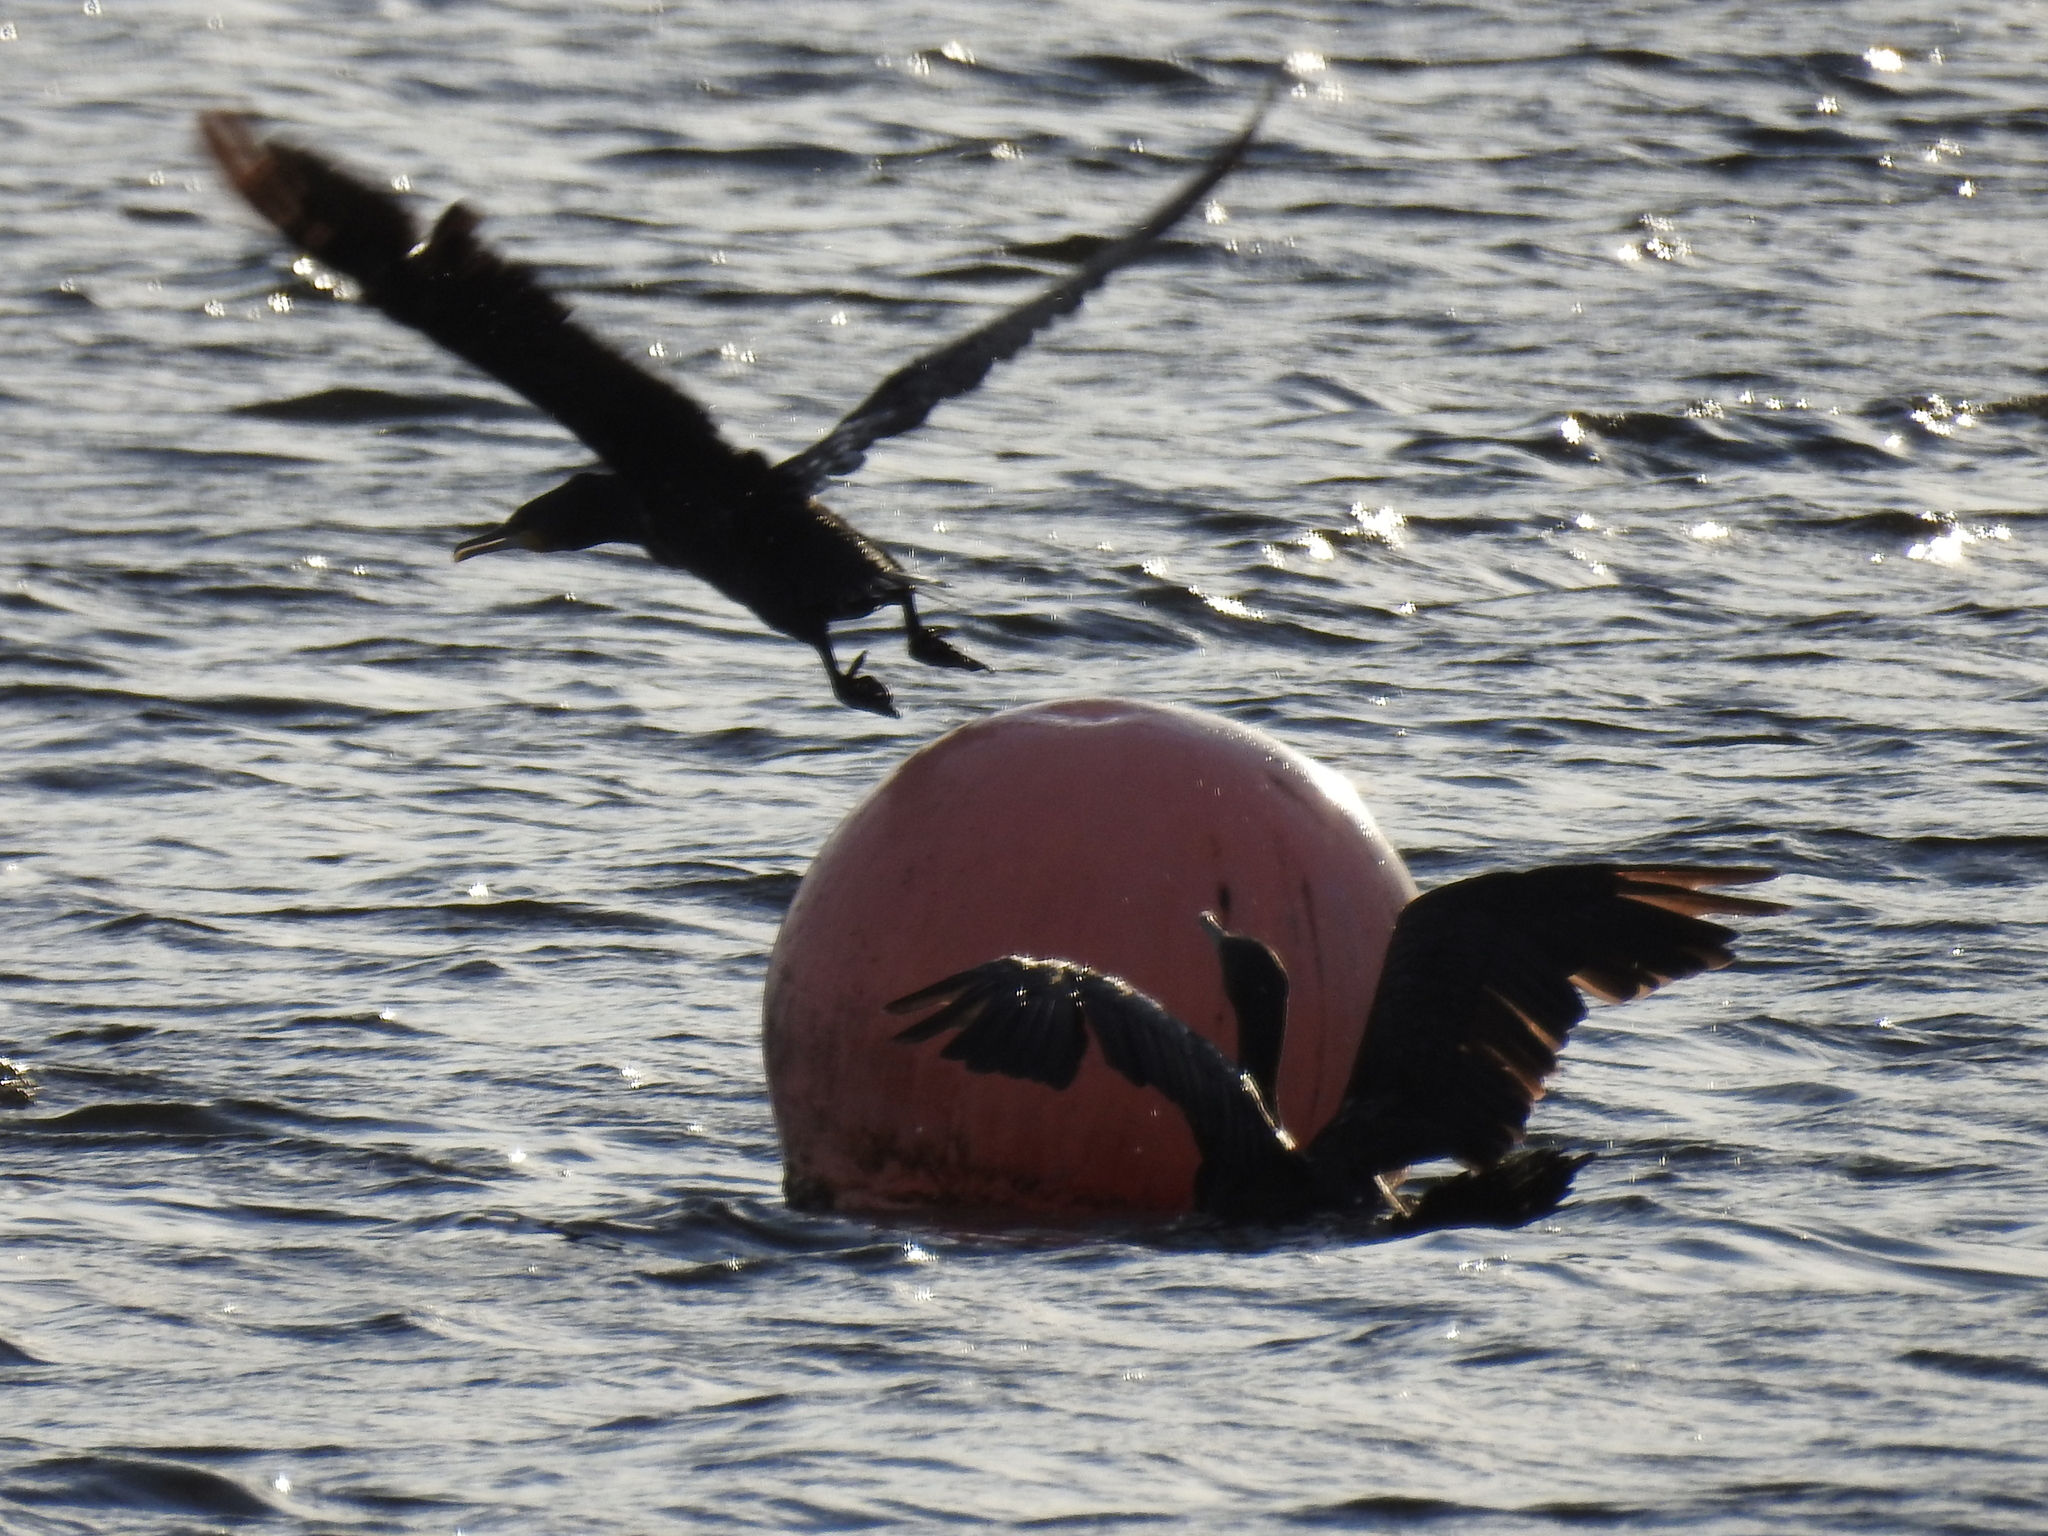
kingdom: Animalia
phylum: Chordata
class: Aves
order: Suliformes
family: Phalacrocoracidae
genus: Phalacrocorax
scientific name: Phalacrocorax carbo
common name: Great cormorant
